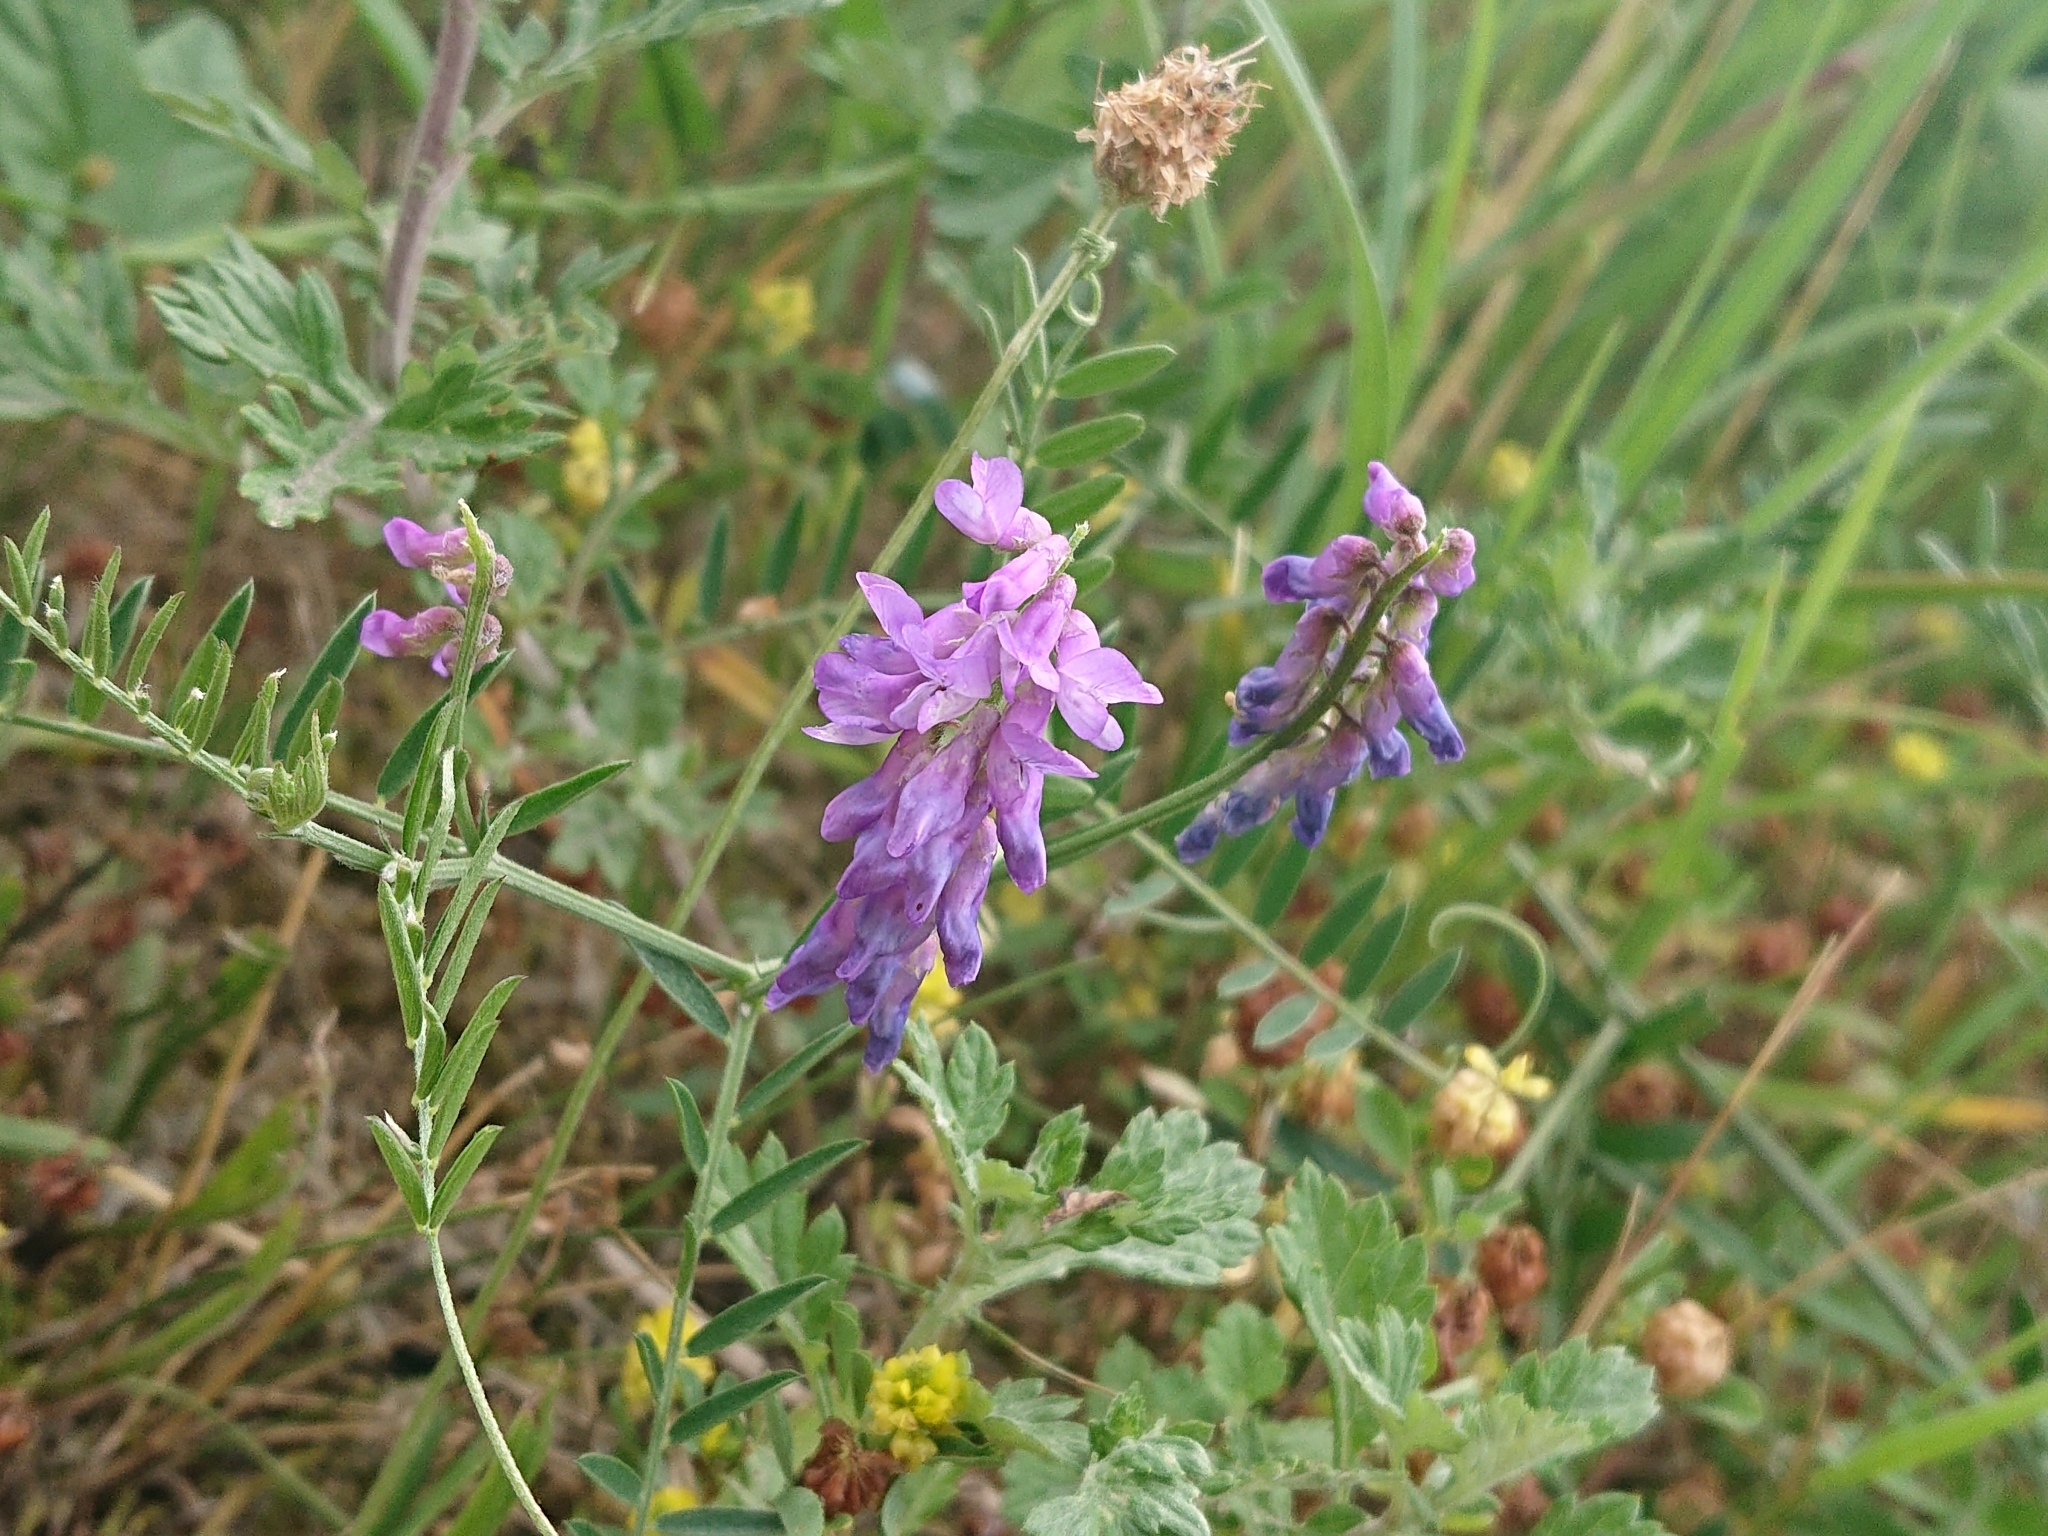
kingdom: Plantae
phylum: Tracheophyta
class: Magnoliopsida
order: Fabales
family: Fabaceae
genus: Vicia
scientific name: Vicia cracca
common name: Bird vetch
